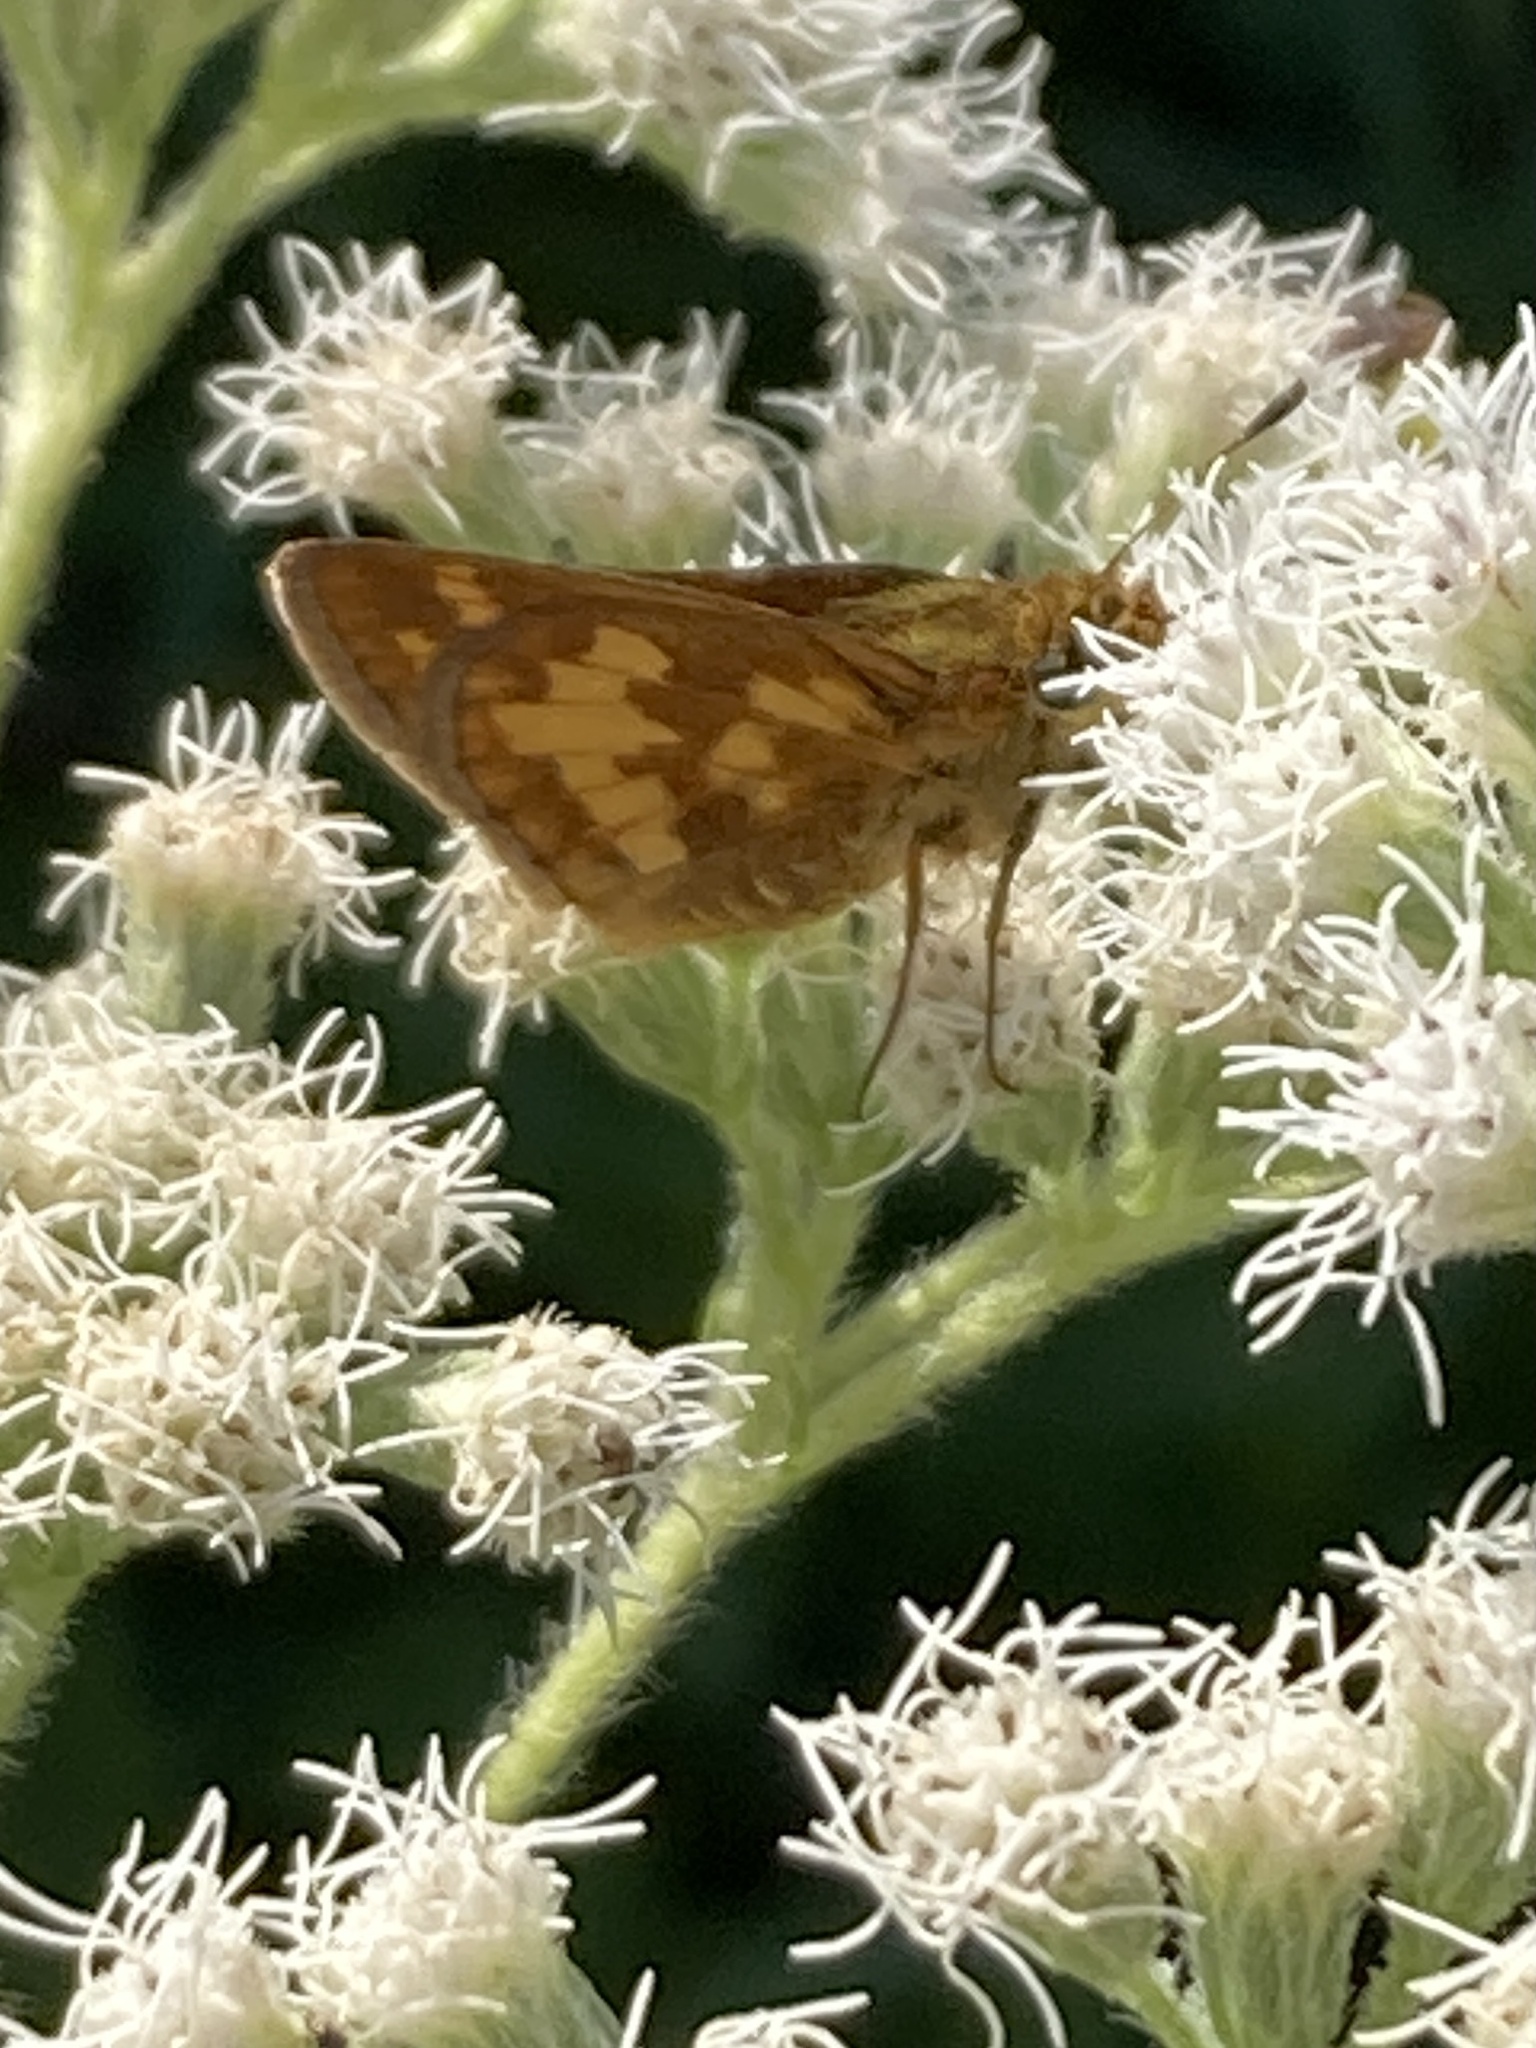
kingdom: Animalia
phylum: Arthropoda
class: Insecta
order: Lepidoptera
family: Hesperiidae
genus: Polites
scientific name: Polites coras
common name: Peck's skipper
